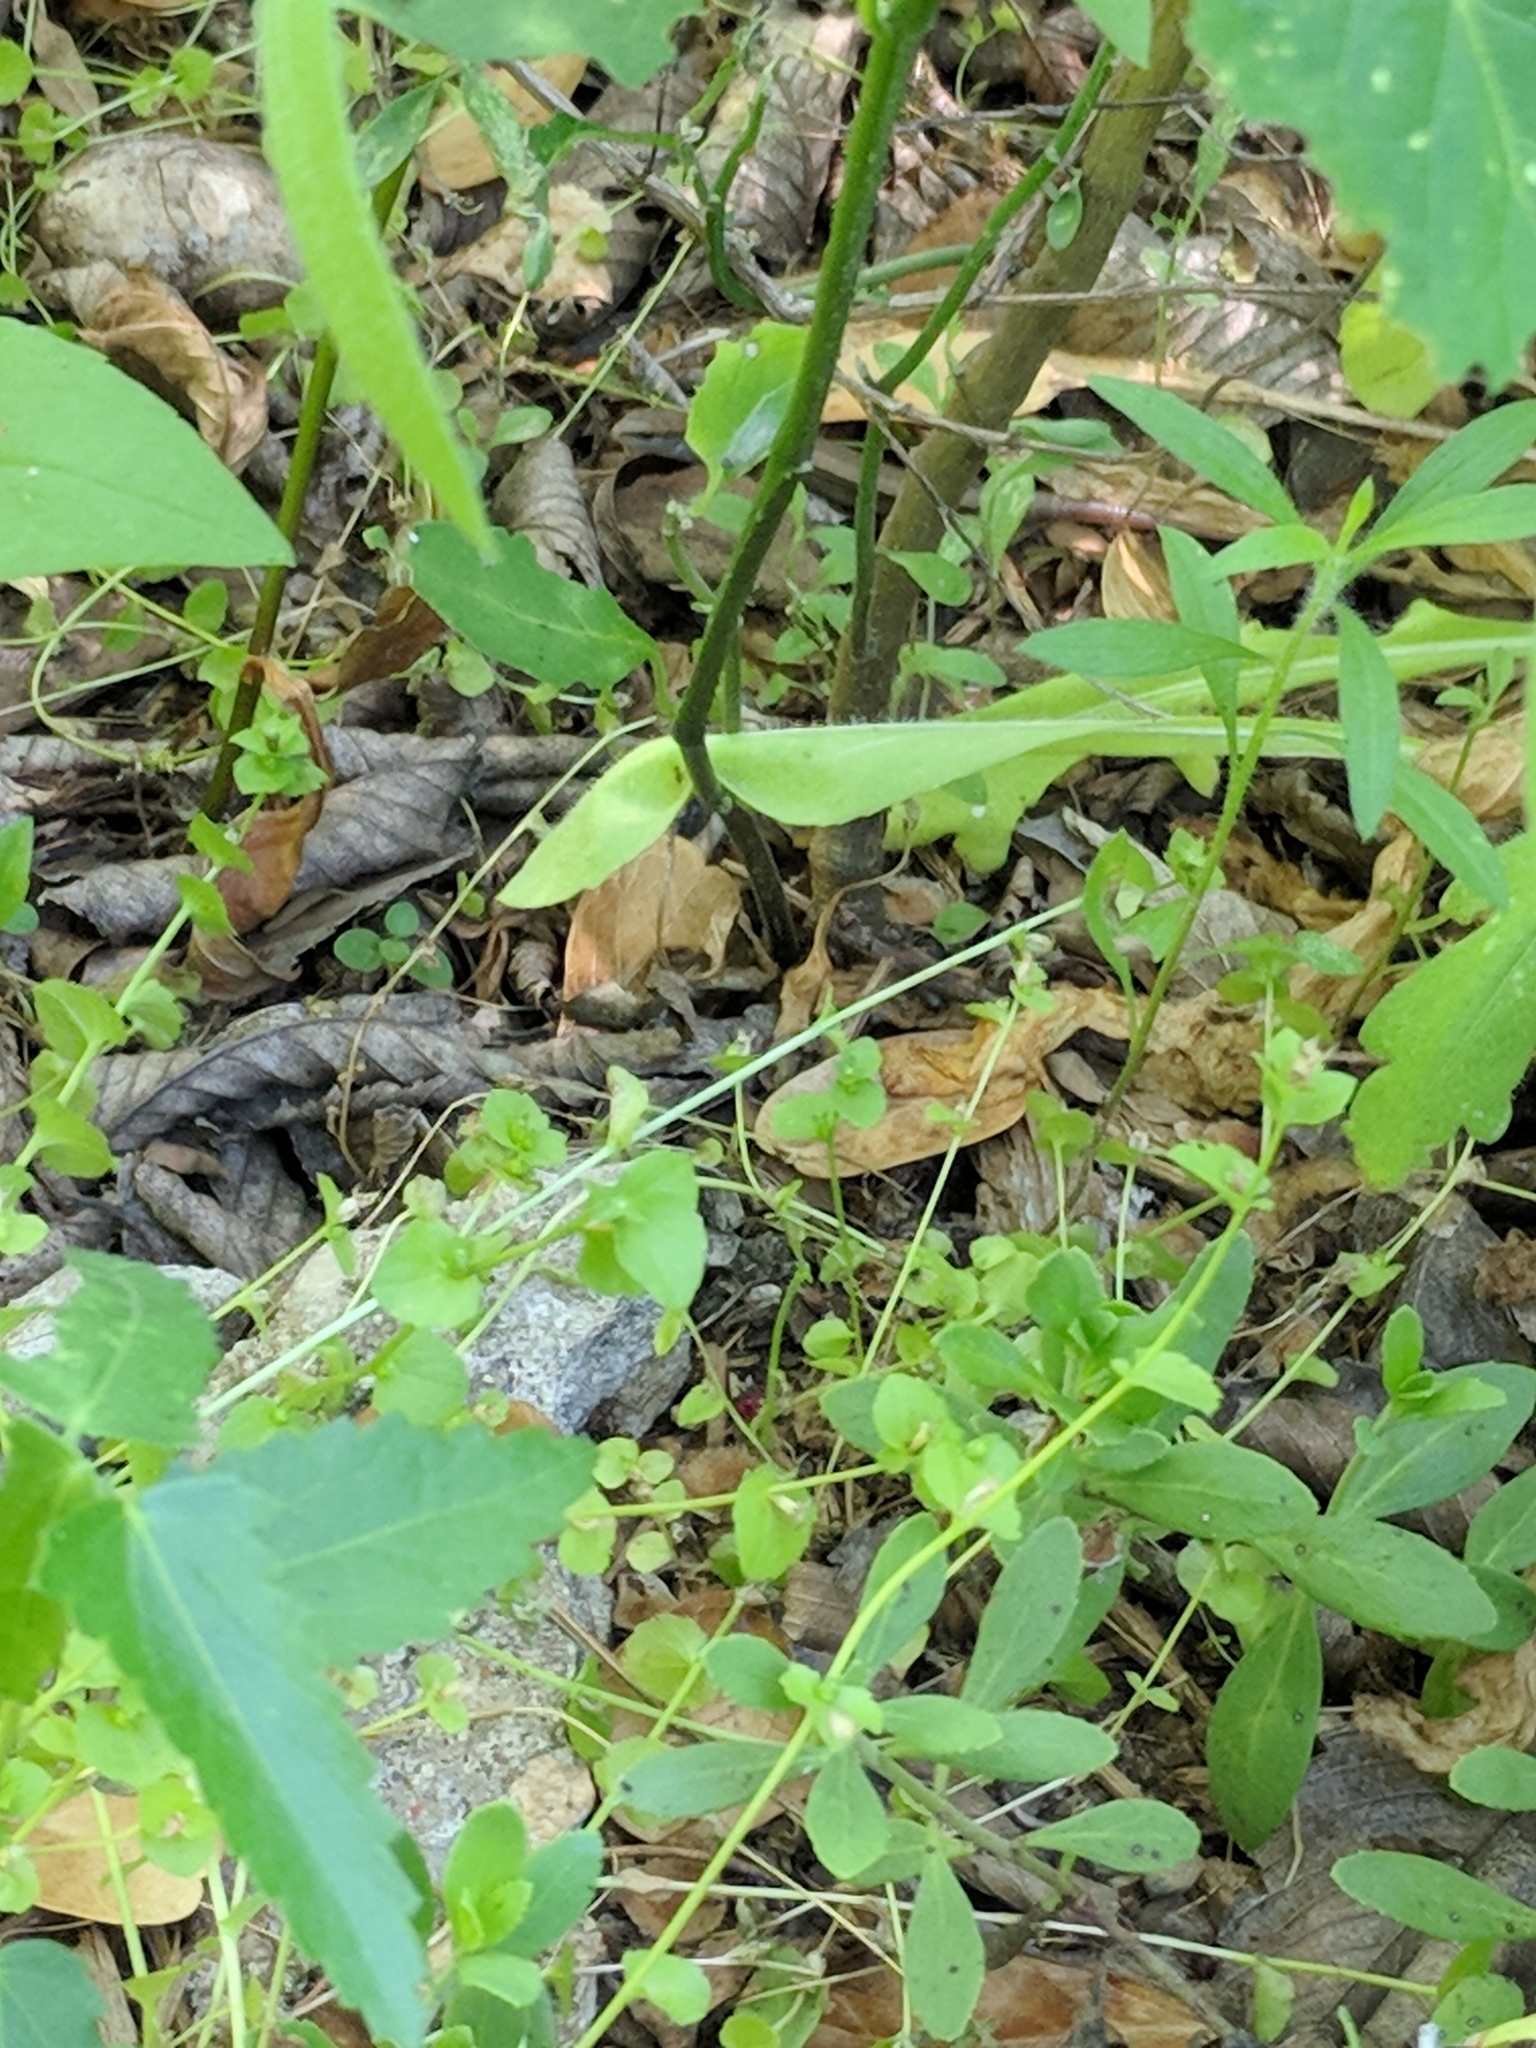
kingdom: Animalia
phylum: Chordata
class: Squamata
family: Scincidae
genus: Scincella
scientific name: Scincella lateralis
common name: Ground skink
